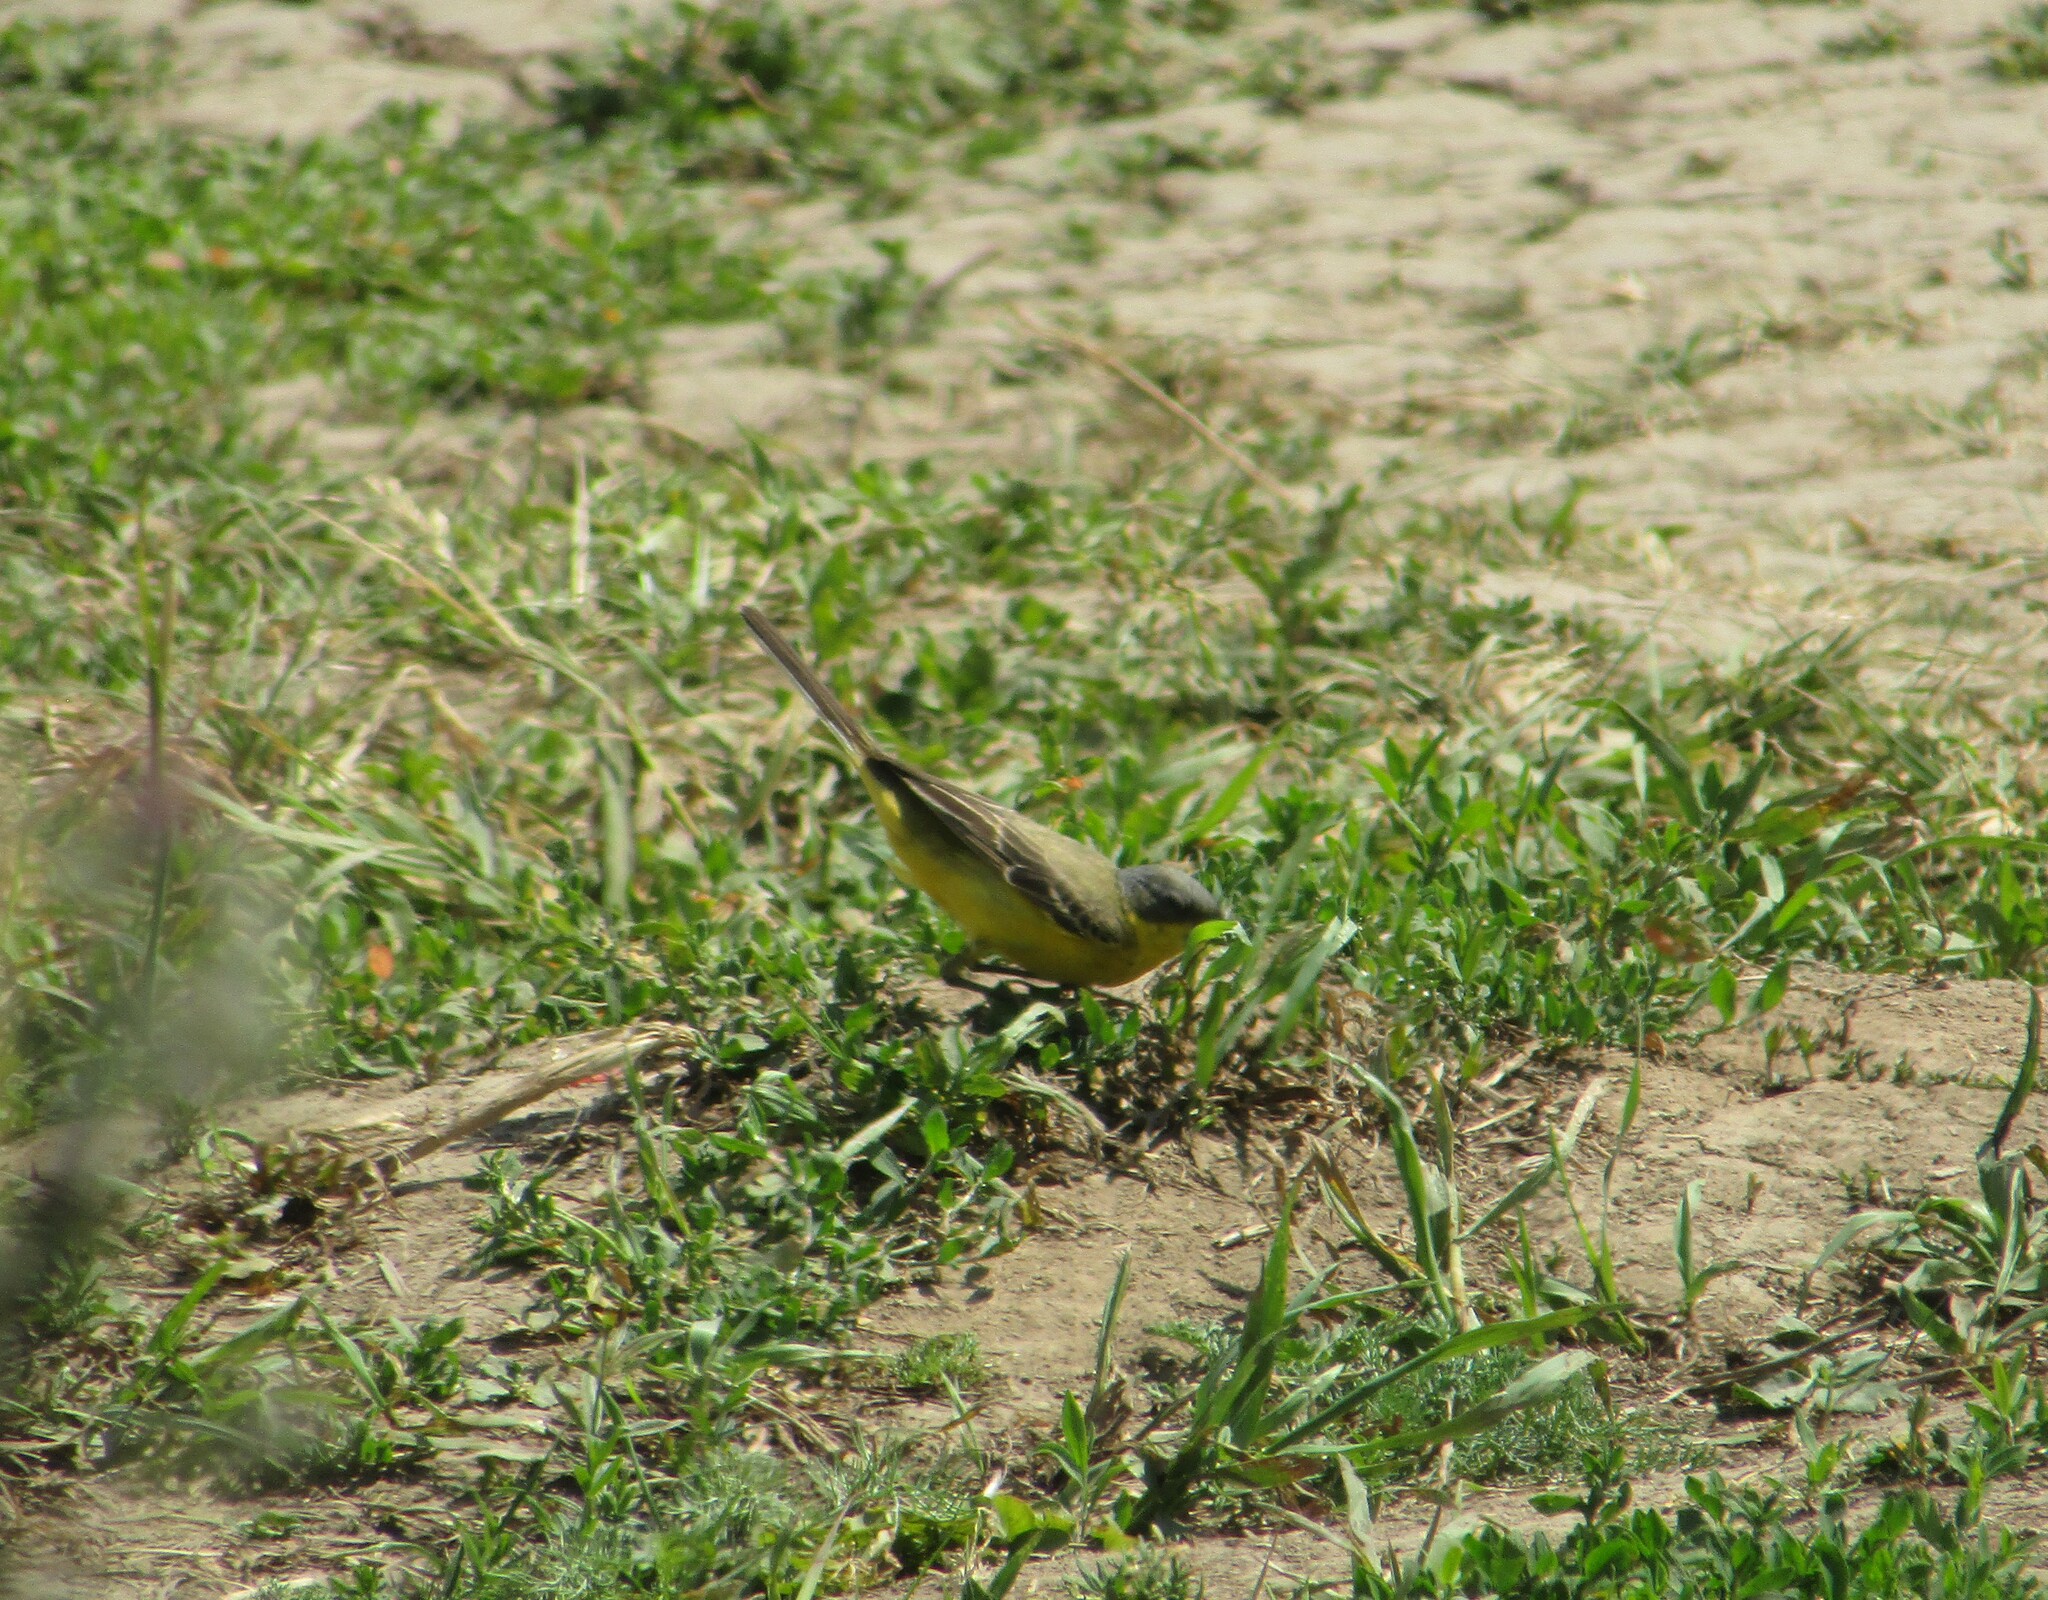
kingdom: Animalia
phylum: Chordata
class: Aves
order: Passeriformes
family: Motacillidae
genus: Motacilla
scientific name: Motacilla flava
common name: Western yellow wagtail
